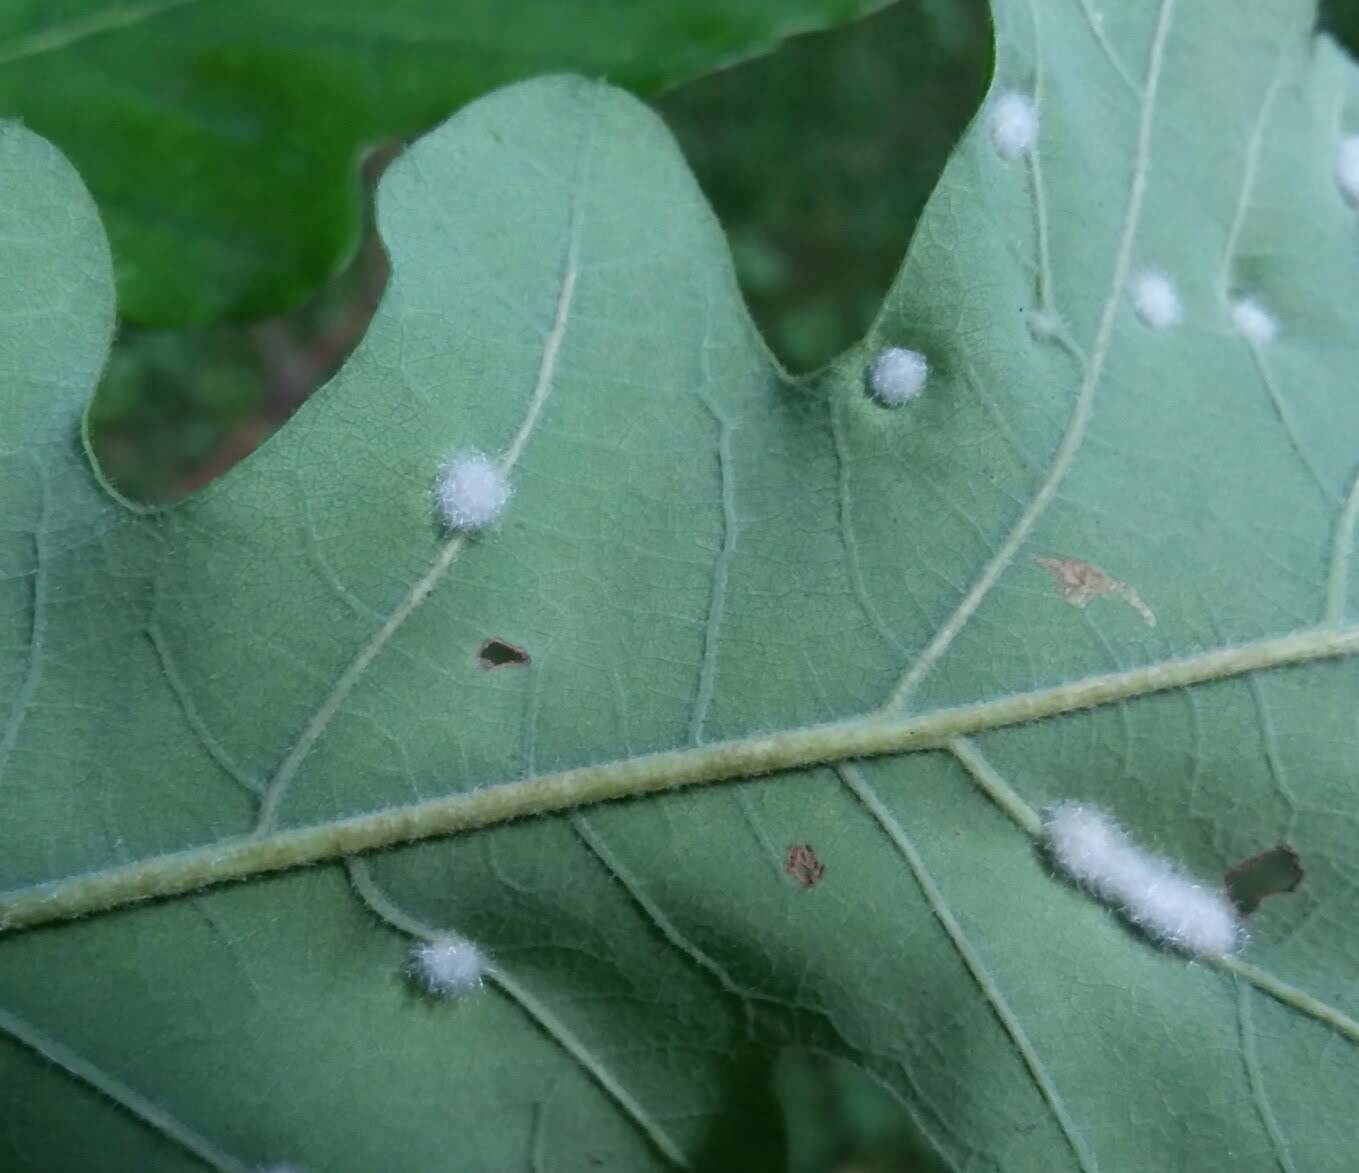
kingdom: Animalia
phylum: Arthropoda
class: Insecta
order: Hymenoptera
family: Cynipidae
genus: Neuroterus
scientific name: Neuroterus quercusverrucarum
